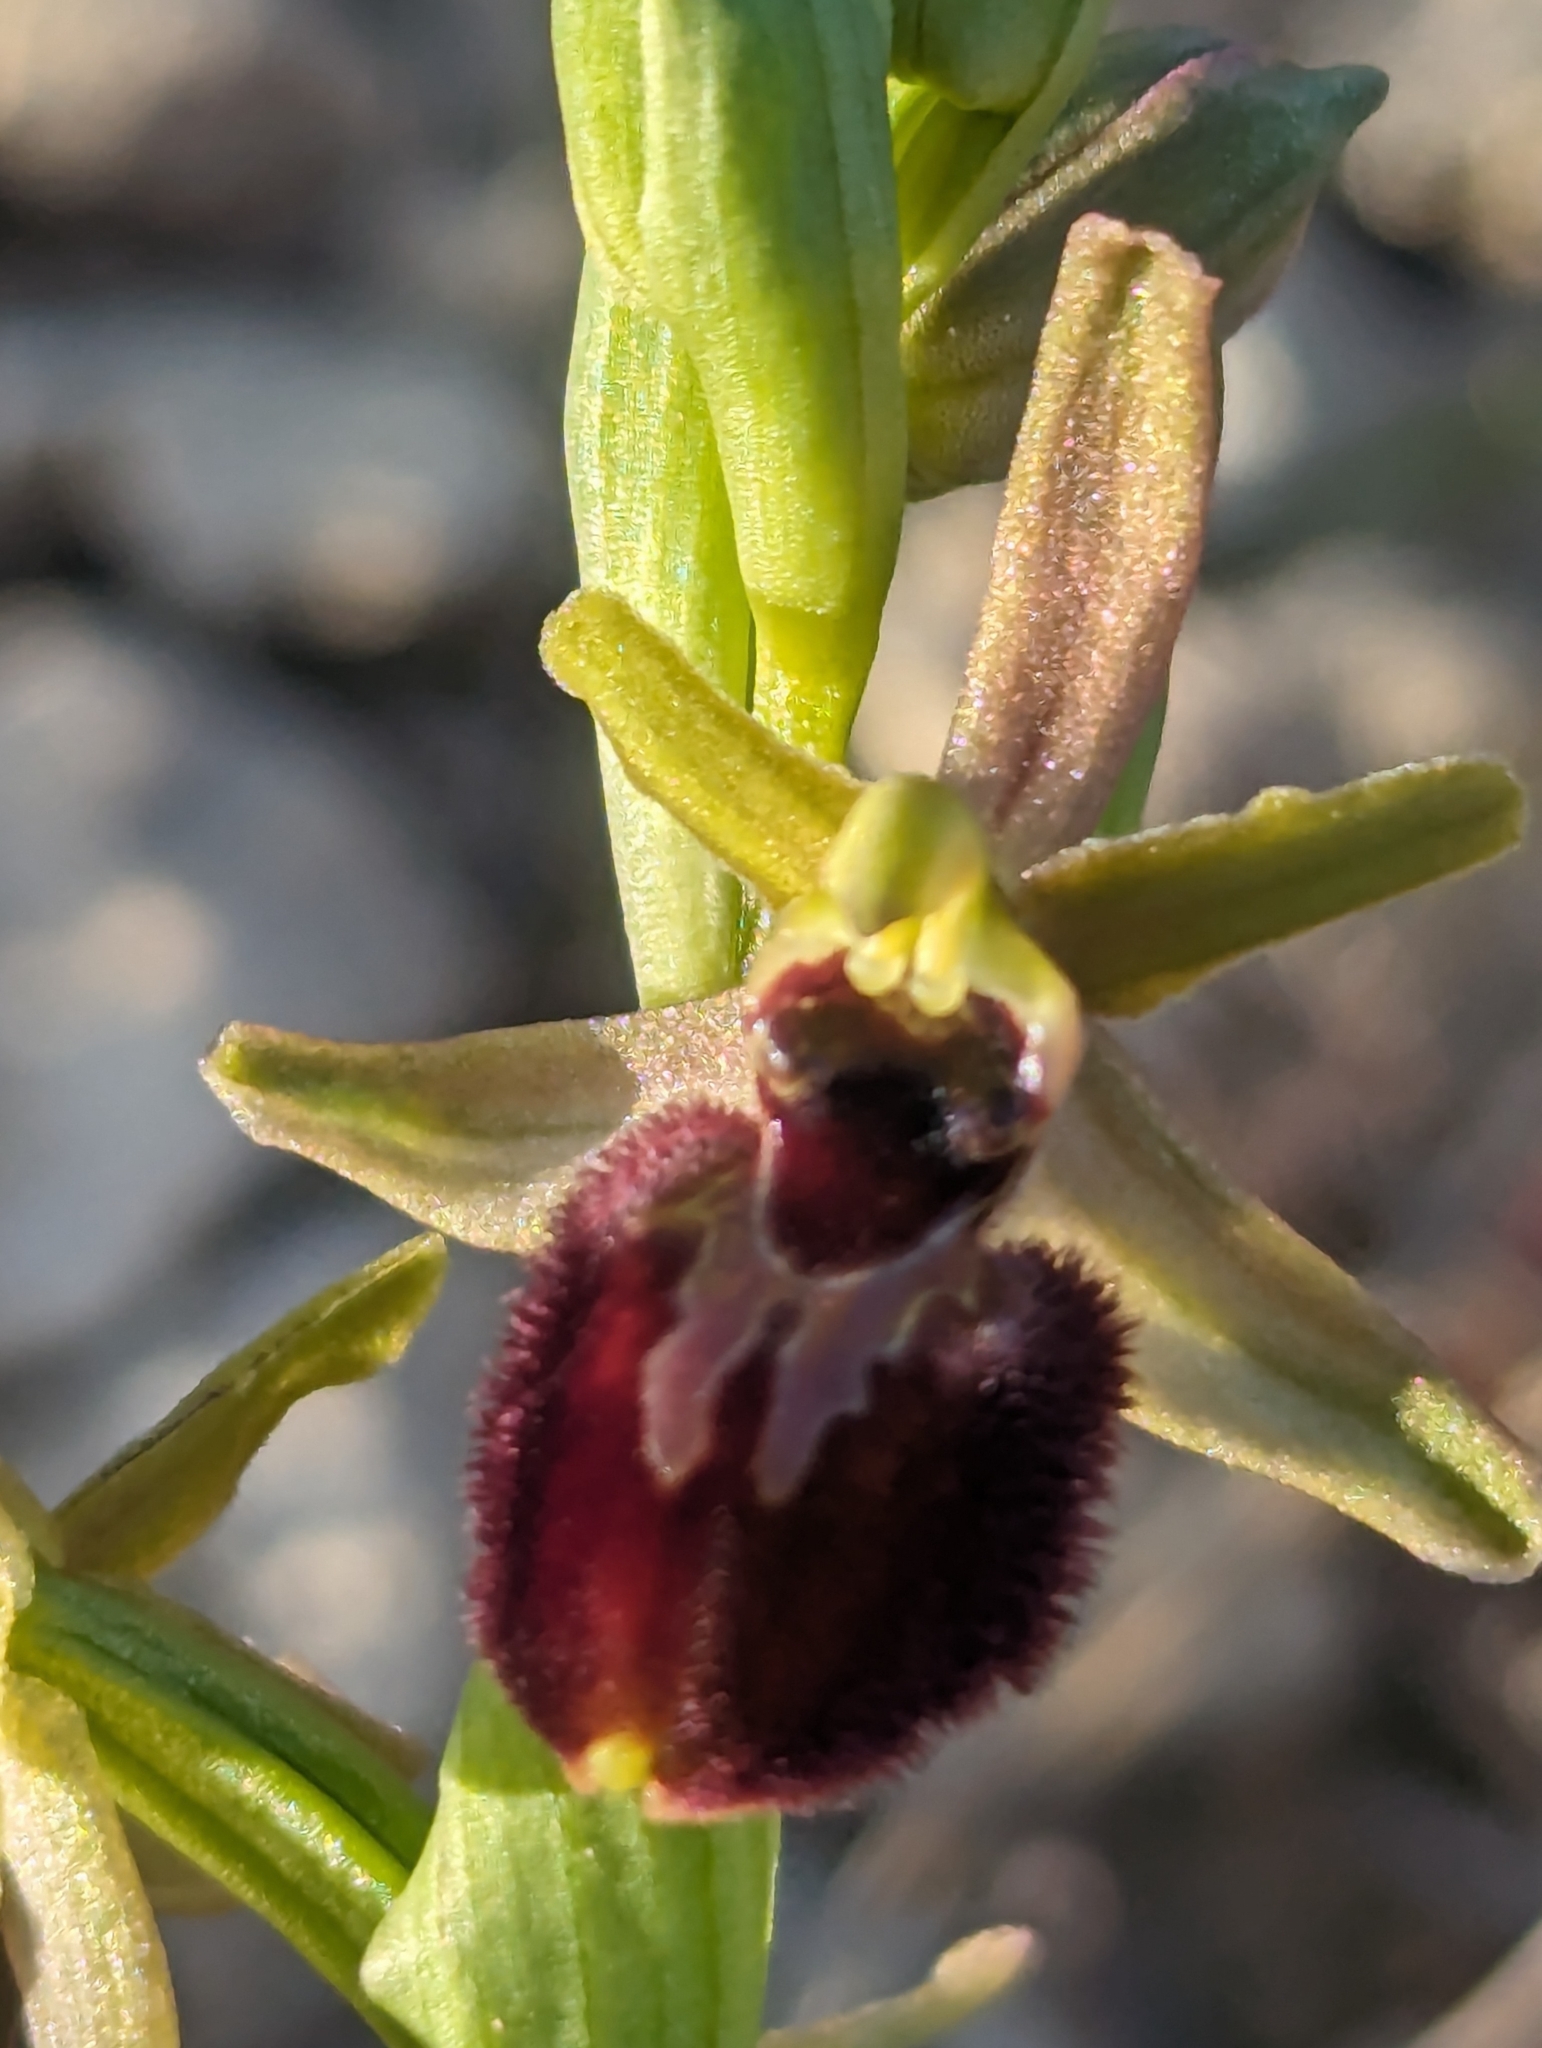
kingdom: Plantae
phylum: Tracheophyta
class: Liliopsida
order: Asparagales
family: Orchidaceae
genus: Ophrys
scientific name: Ophrys arachnitiformis
